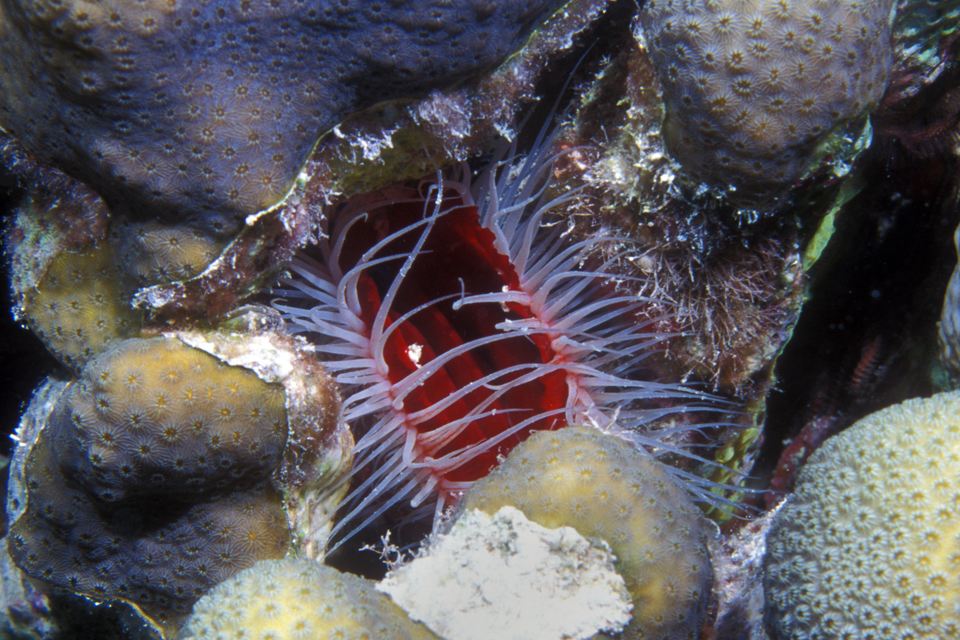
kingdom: Animalia
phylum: Mollusca
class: Bivalvia
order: Limida
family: Limidae
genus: Ctenoides
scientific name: Ctenoides scaber
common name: Rough fileclam
